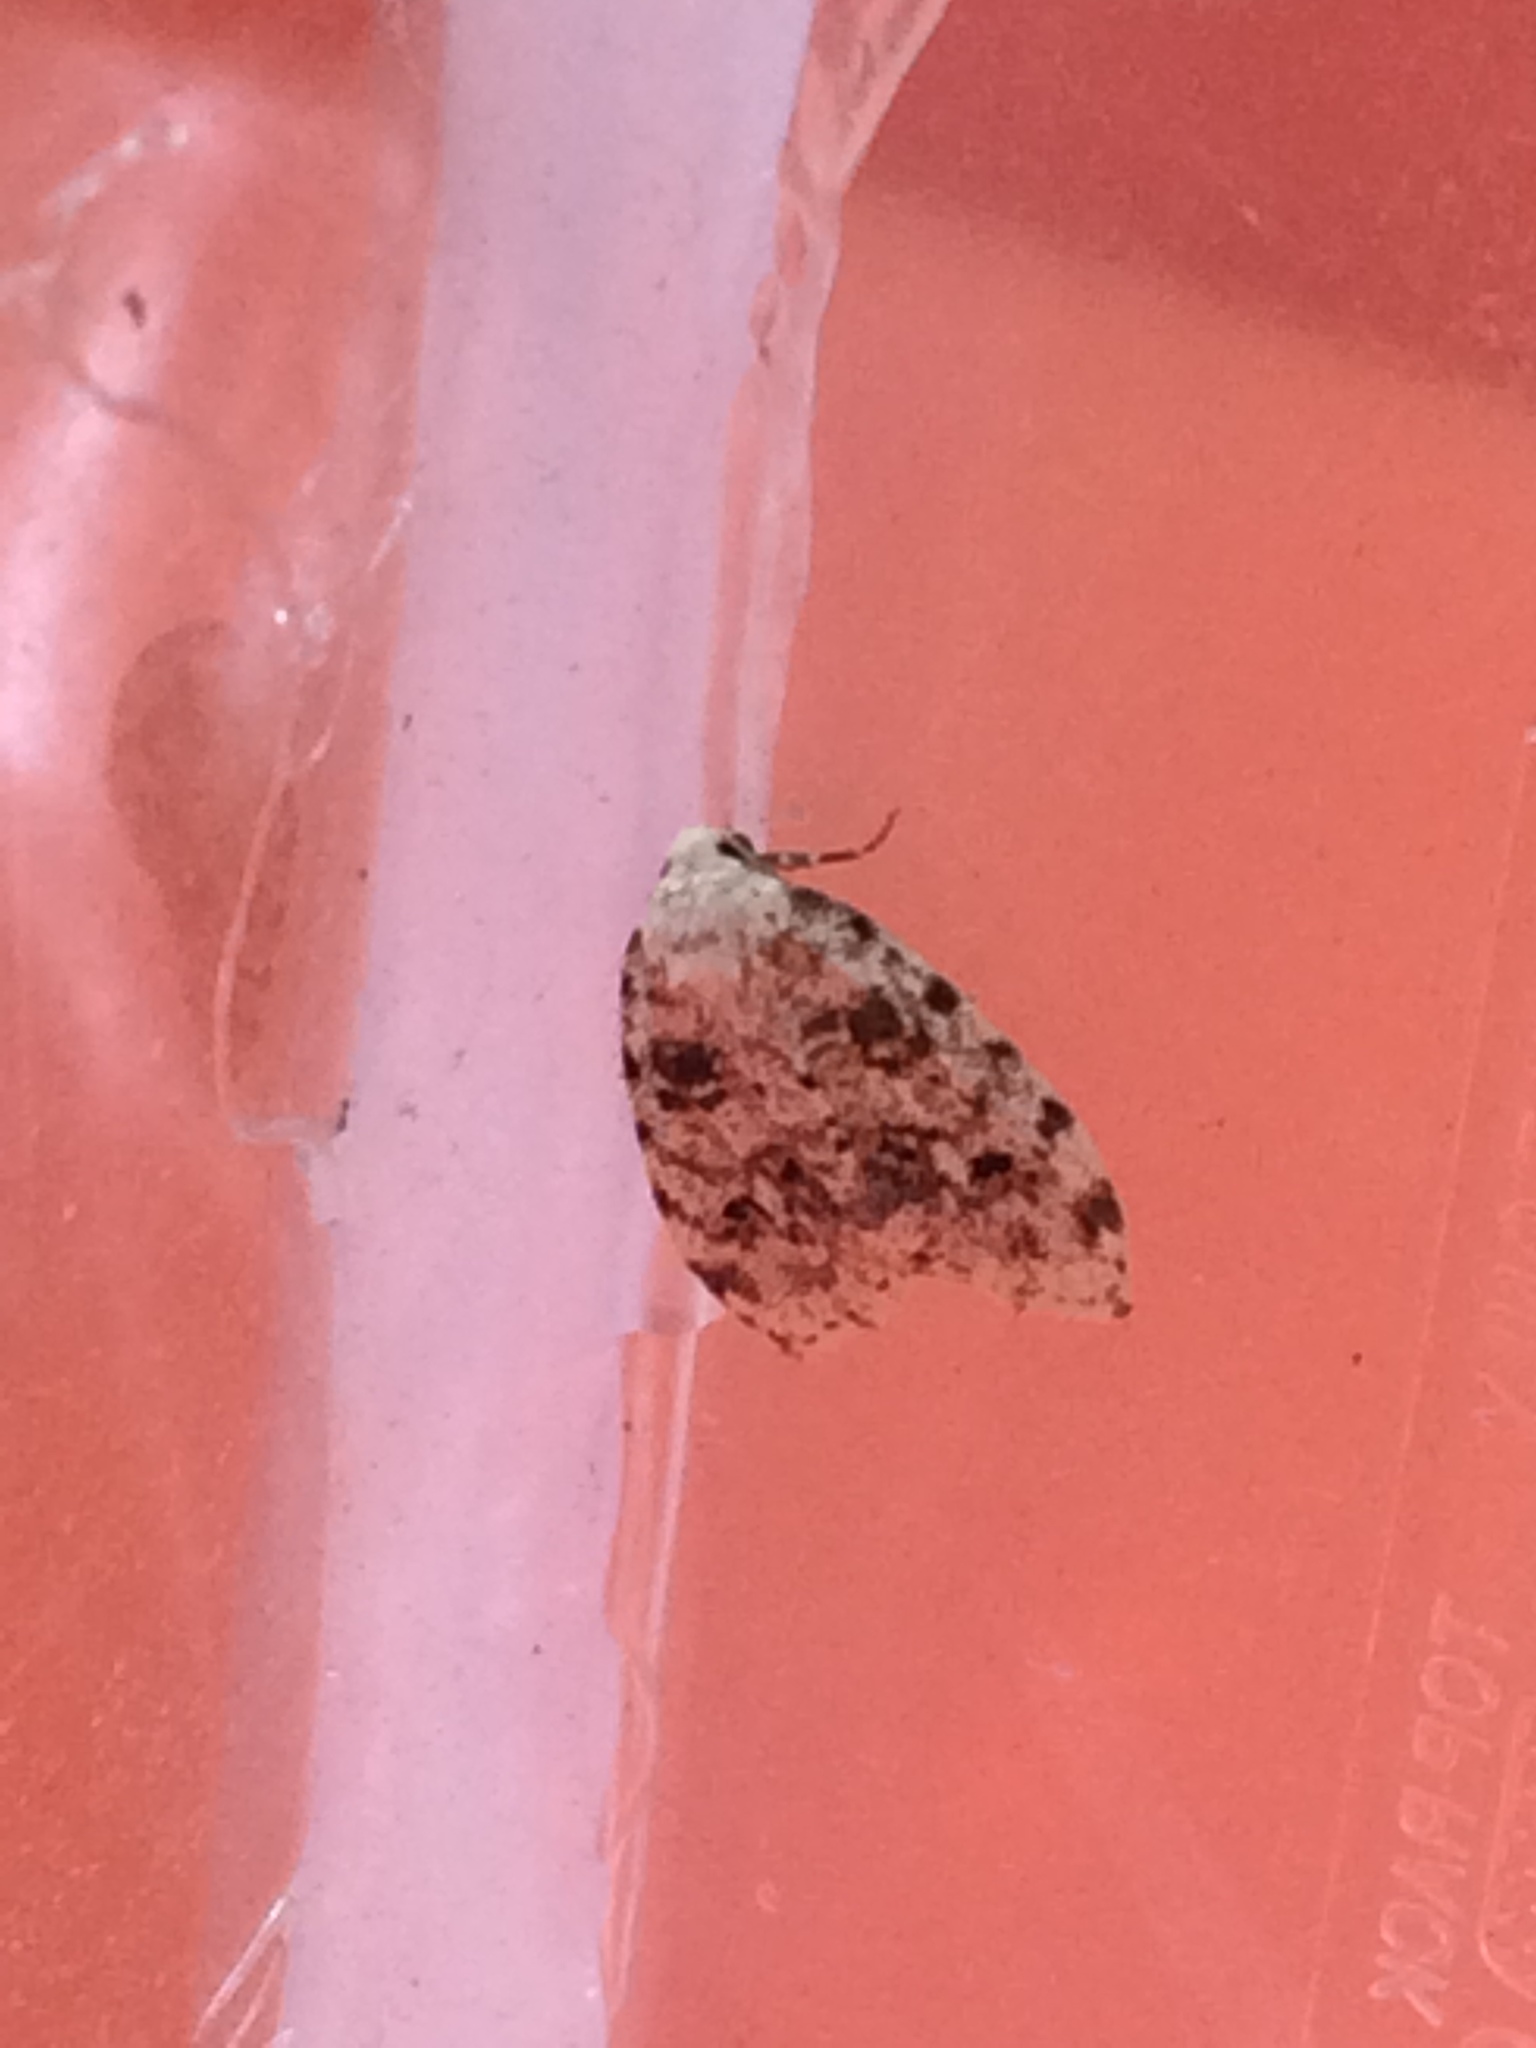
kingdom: Animalia
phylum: Arthropoda
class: Insecta
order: Lepidoptera
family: Erebidae
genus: Clemensia
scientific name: Clemensia ochreata
